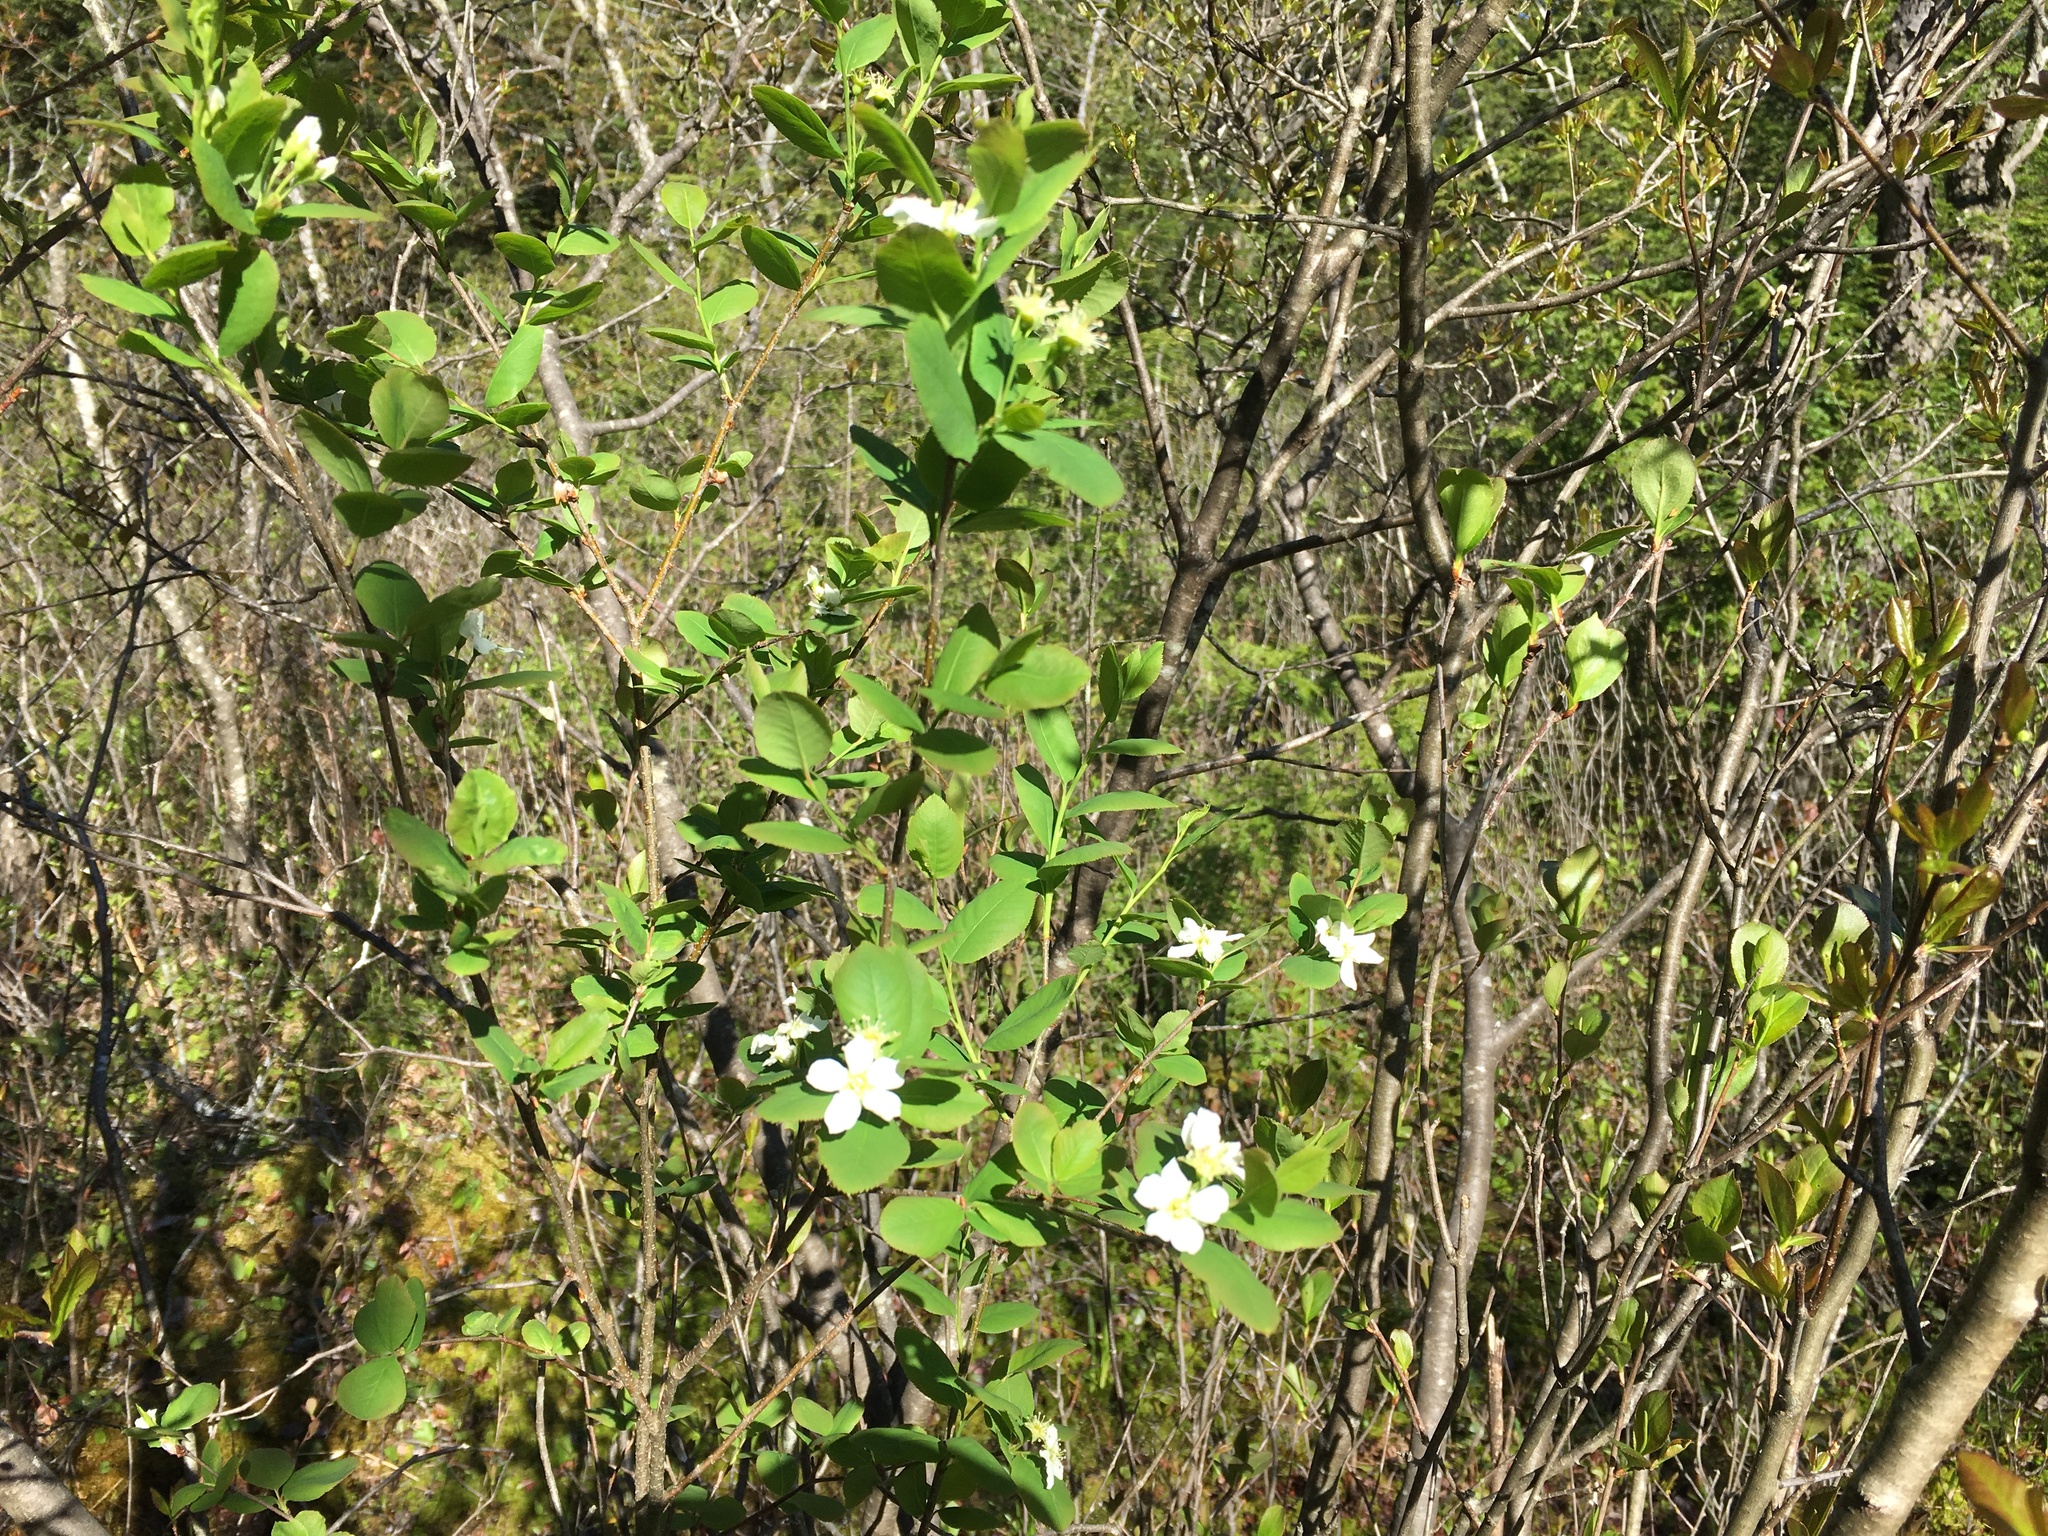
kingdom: Plantae
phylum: Tracheophyta
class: Magnoliopsida
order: Rosales
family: Rosaceae
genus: Amelanchier
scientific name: Amelanchier bartramiana
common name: Mountain serviceberry
